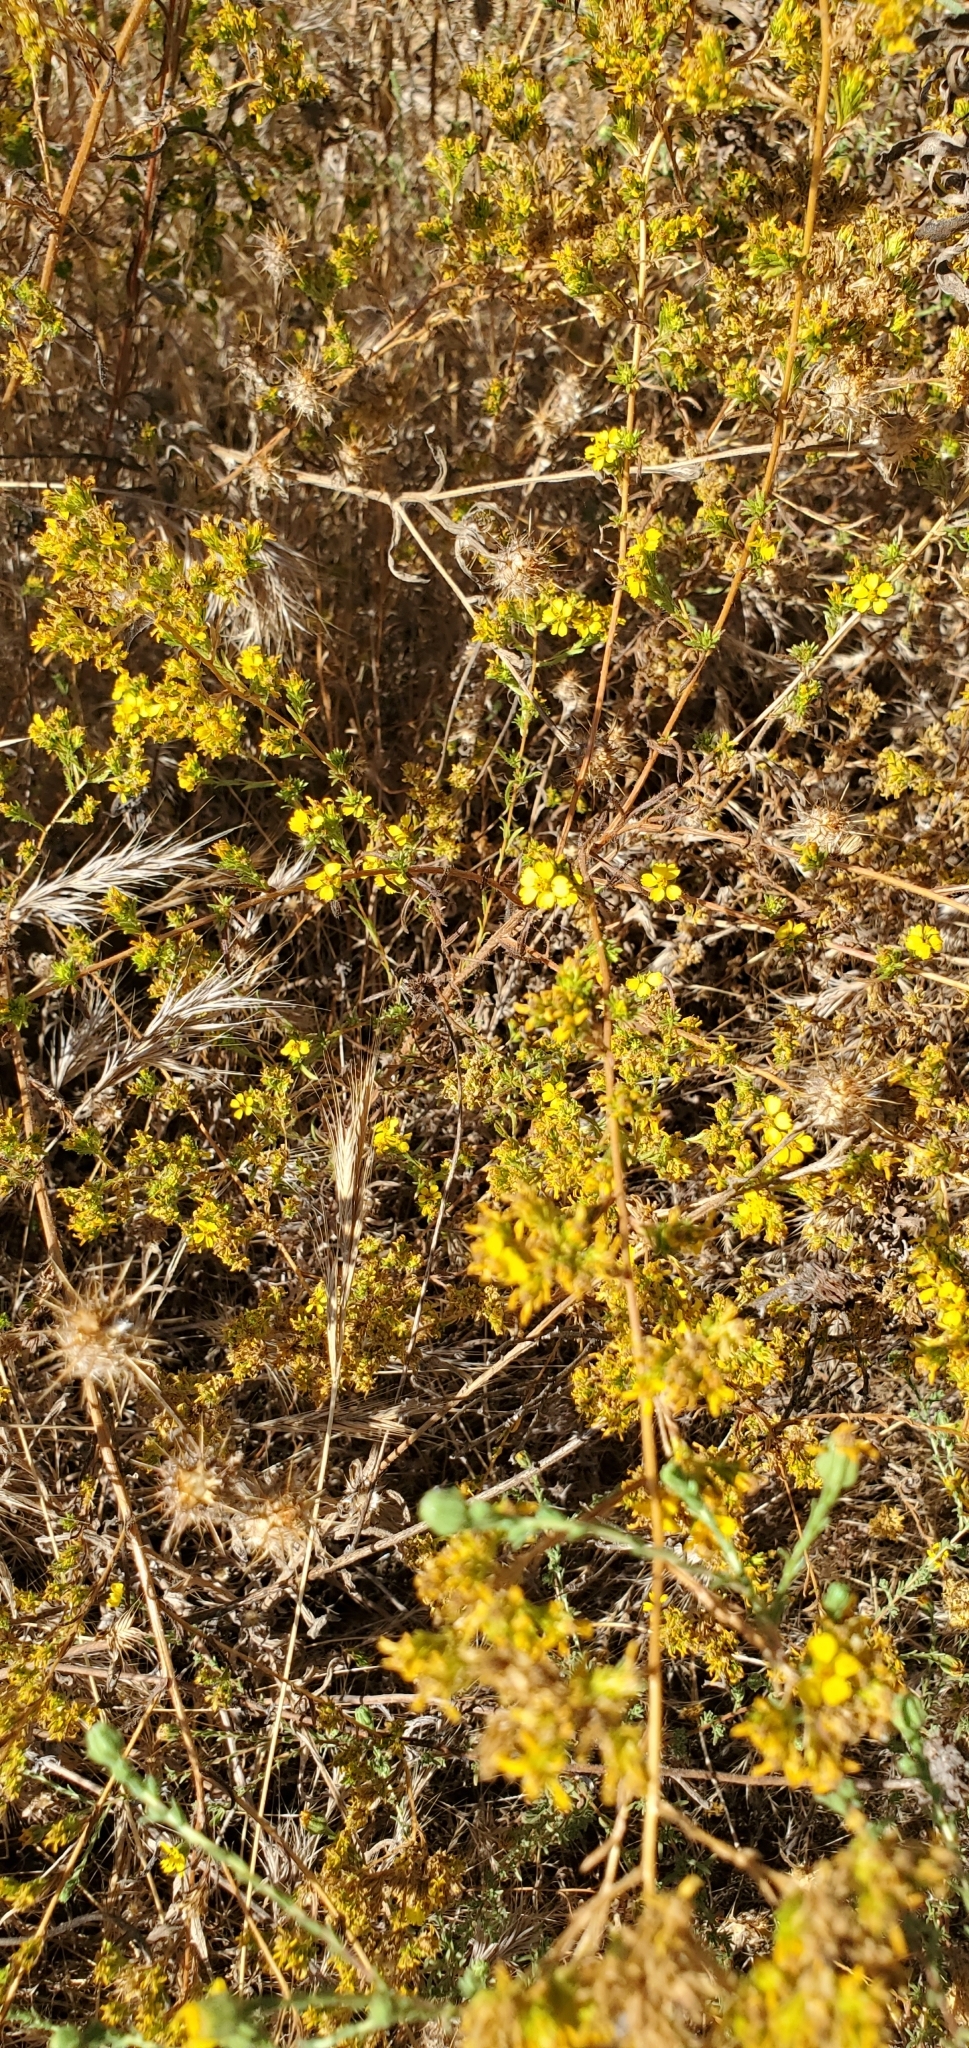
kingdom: Plantae
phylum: Tracheophyta
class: Magnoliopsida
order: Asterales
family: Asteraceae
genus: Deinandra
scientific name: Deinandra fasciculata
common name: Clustered tarweed
